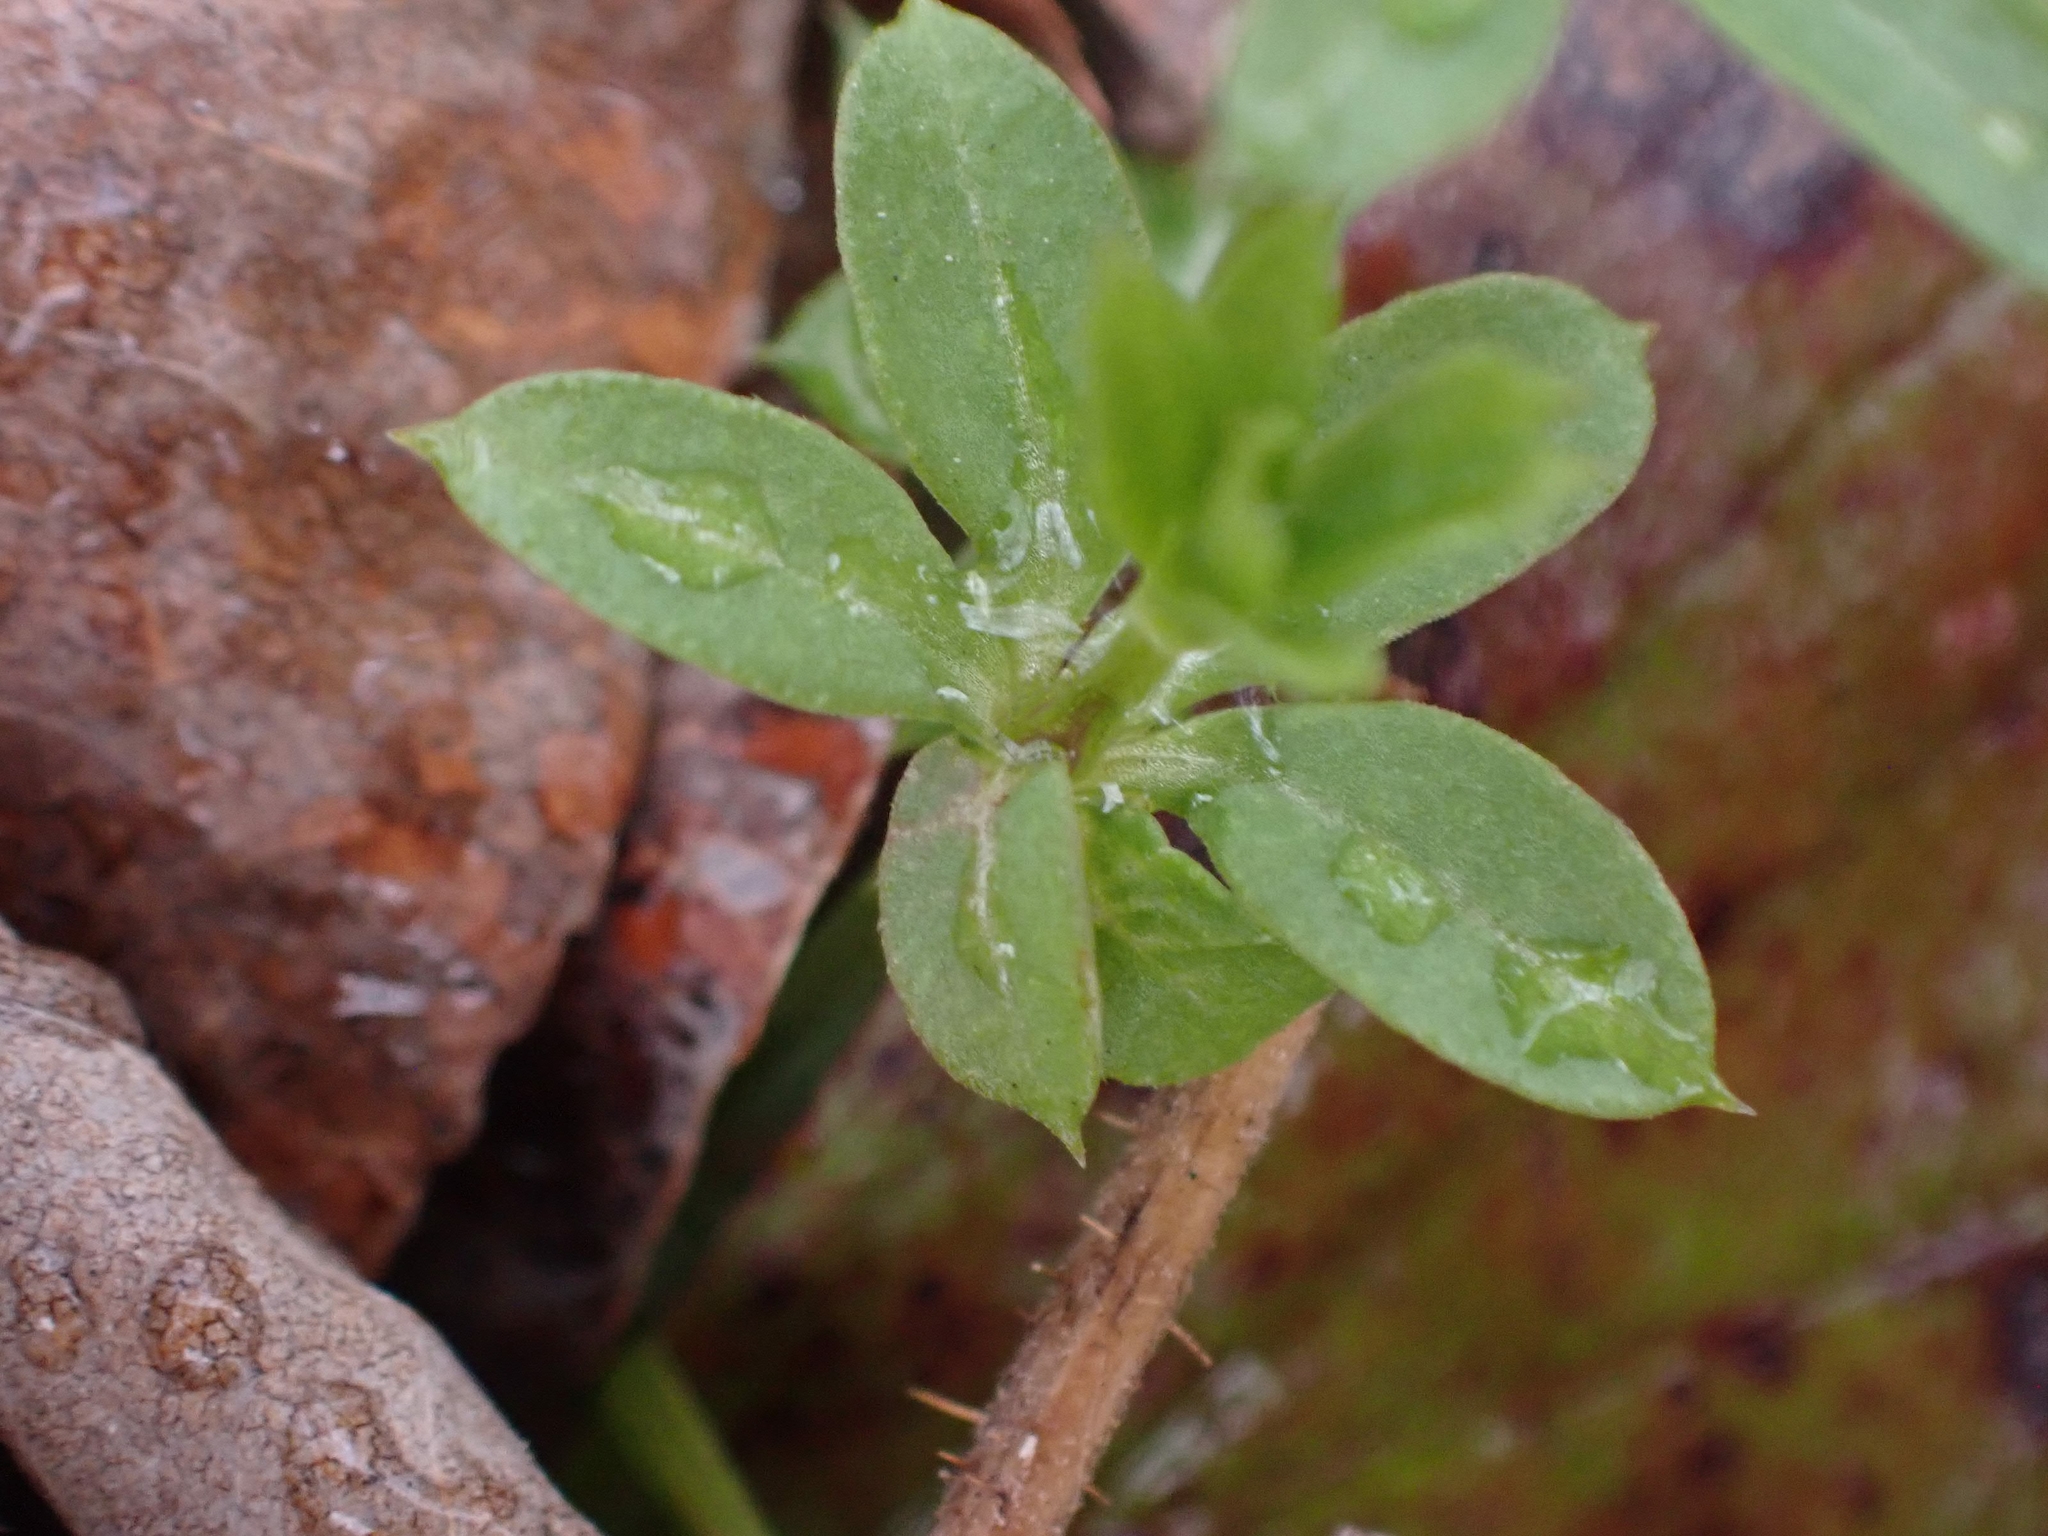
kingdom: Plantae
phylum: Tracheophyta
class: Magnoliopsida
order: Gentianales
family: Rubiaceae
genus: Galium
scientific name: Galium triflorum
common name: Fragrant bedstraw
